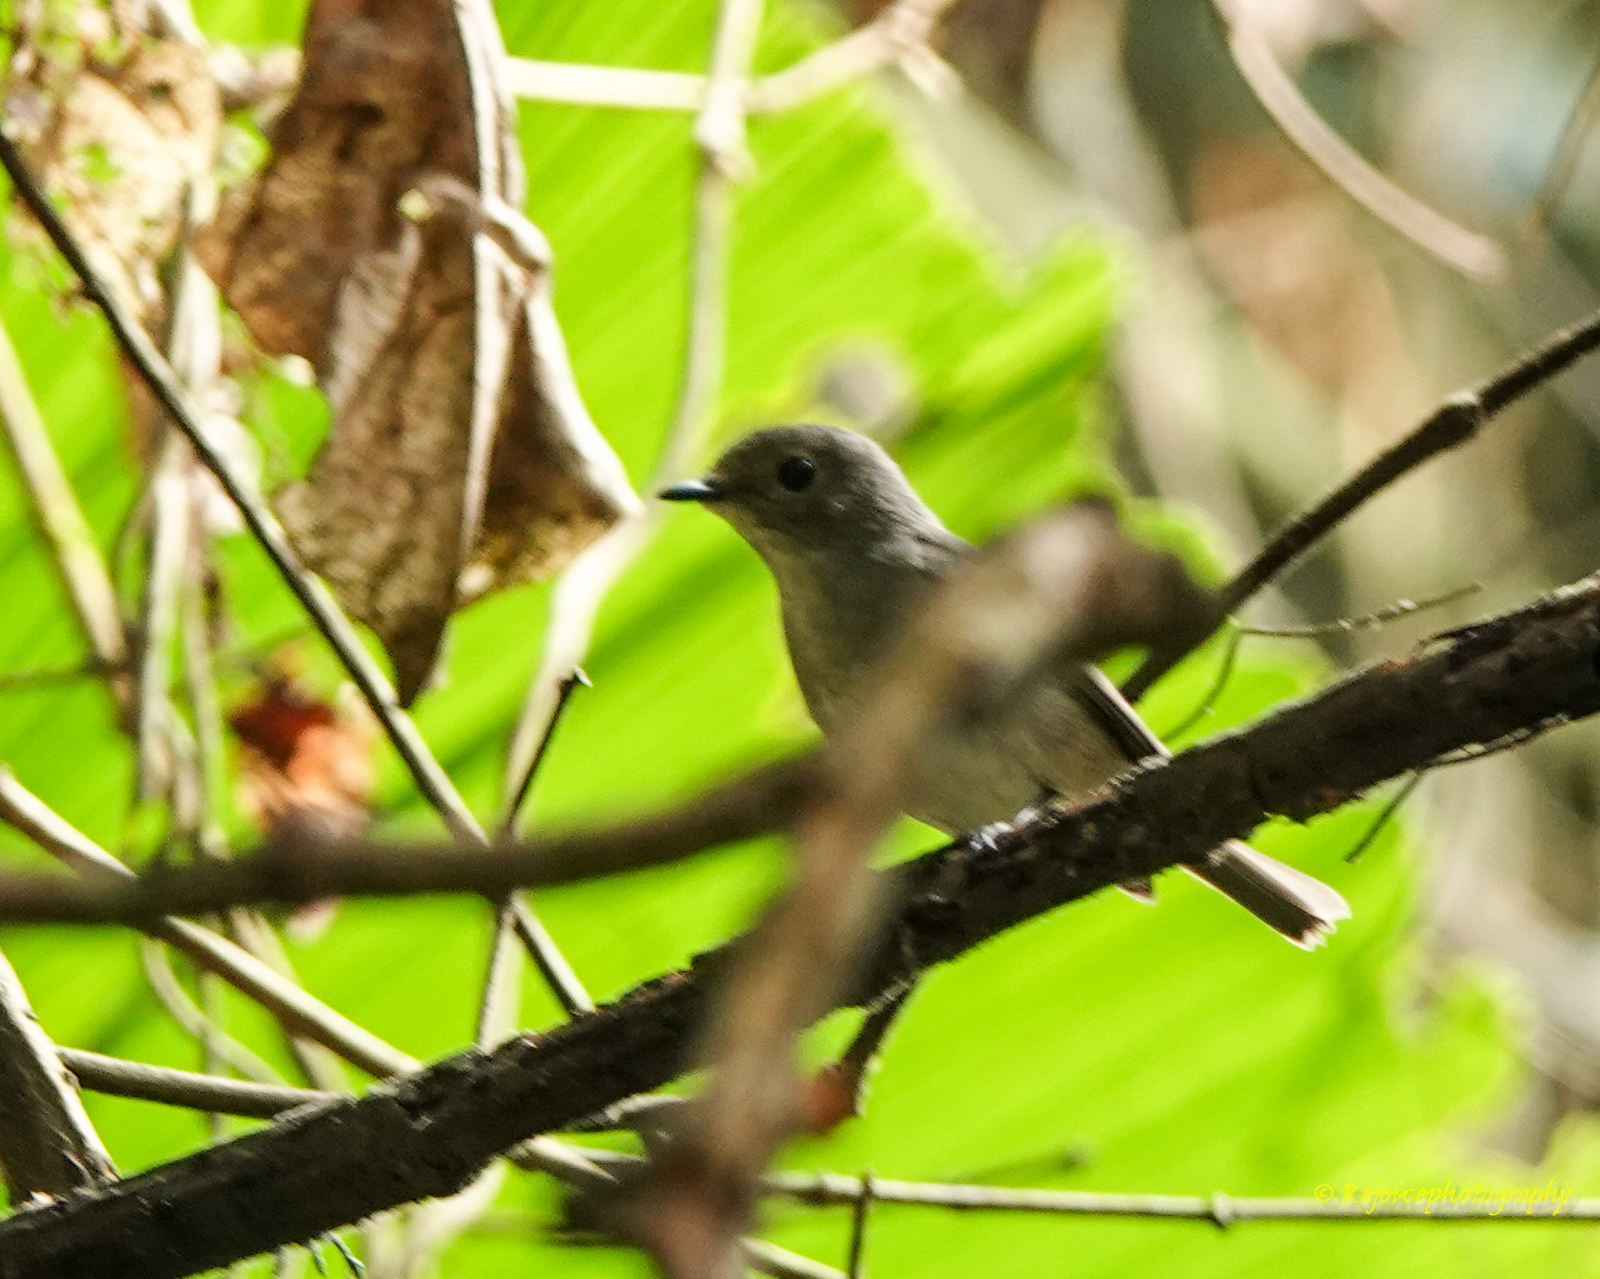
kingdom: Animalia
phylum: Chordata
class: Aves
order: Passeriformes
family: Muscicapidae
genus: Ficedula
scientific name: Ficedula westermanni
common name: Little pied flycatcher
